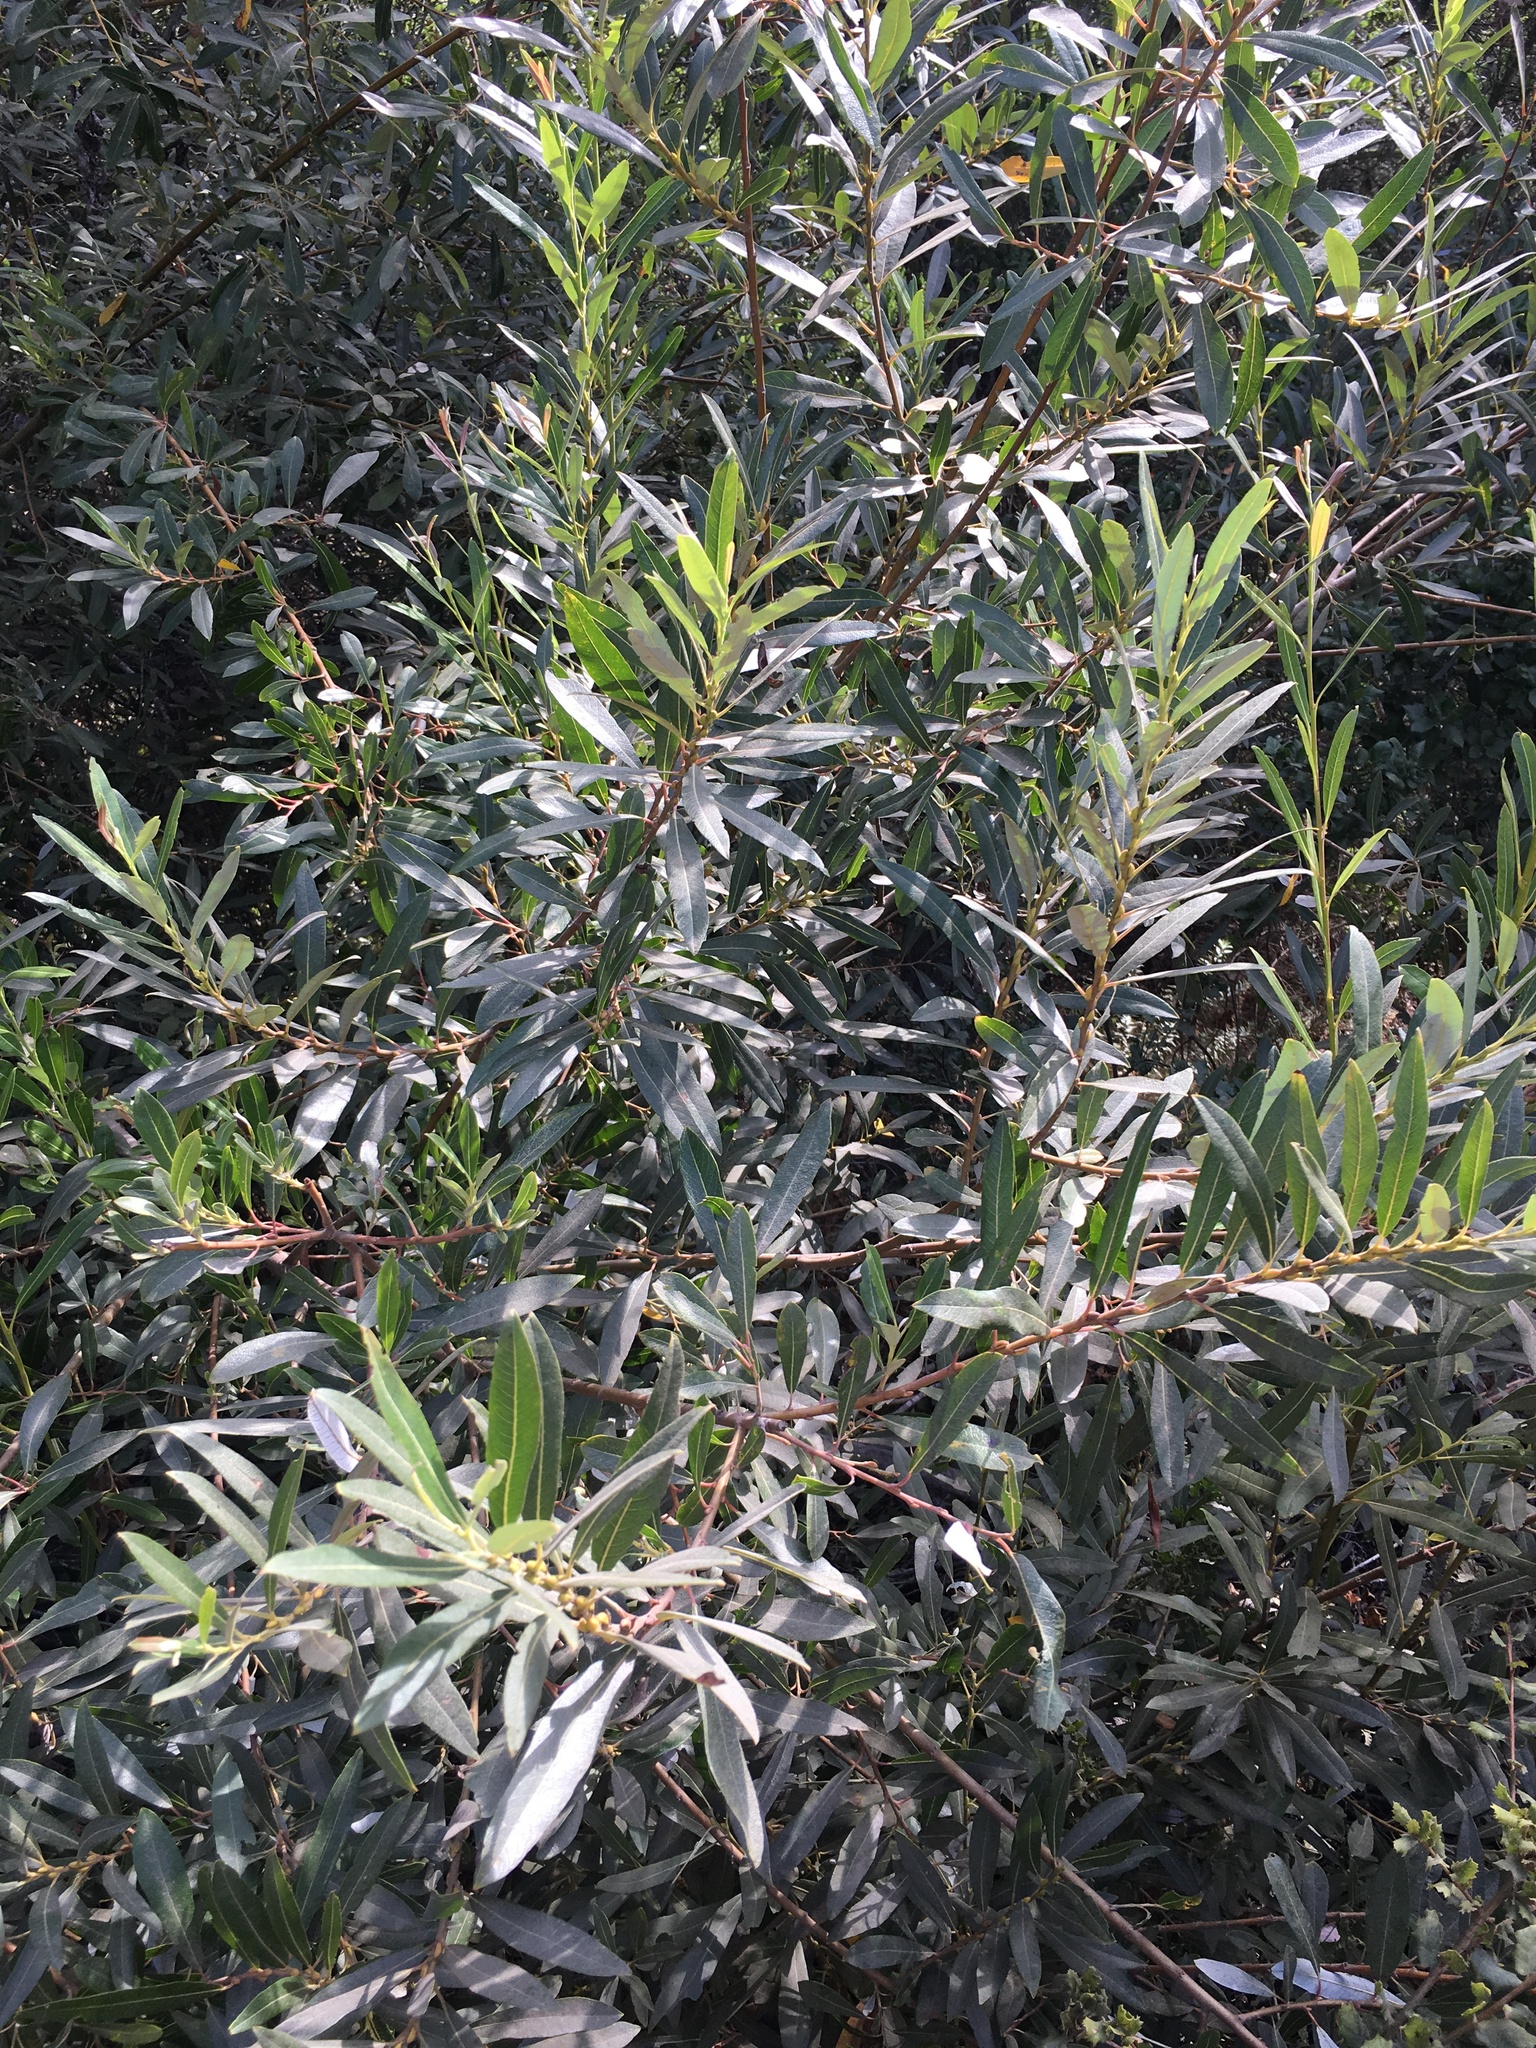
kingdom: Plantae
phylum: Tracheophyta
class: Magnoliopsida
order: Malpighiales
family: Salicaceae
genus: Salix
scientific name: Salix lasiolepis
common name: Arroyo willow
